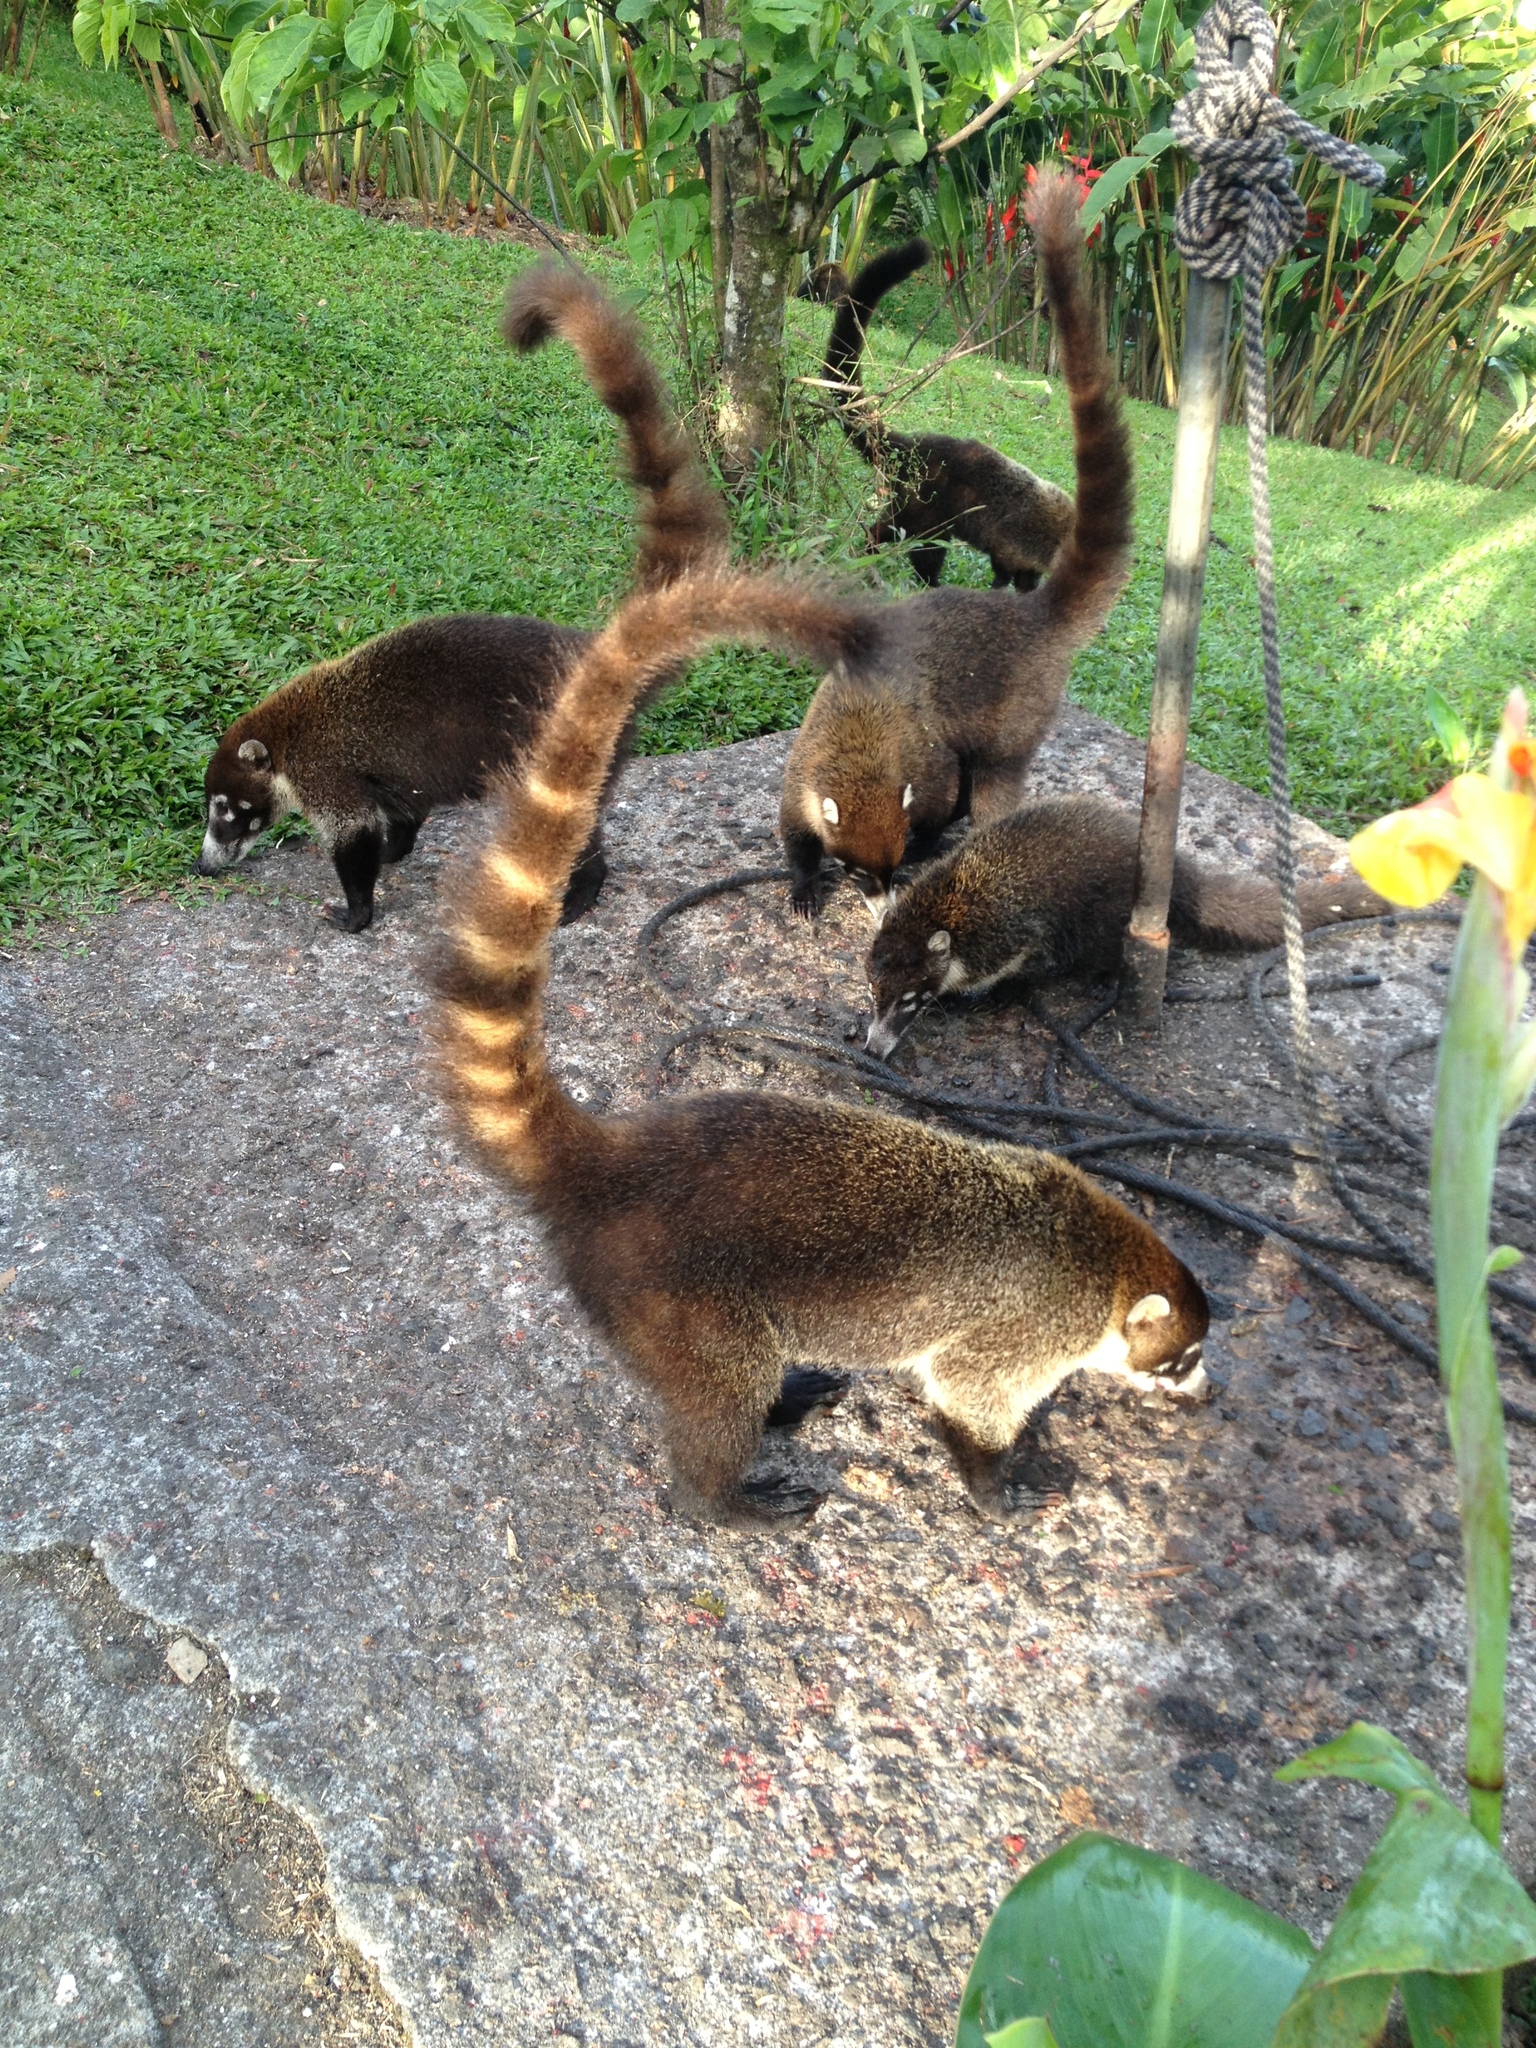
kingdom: Animalia
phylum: Chordata
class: Mammalia
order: Carnivora
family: Procyonidae
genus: Nasua
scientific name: Nasua narica
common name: White-nosed coati
